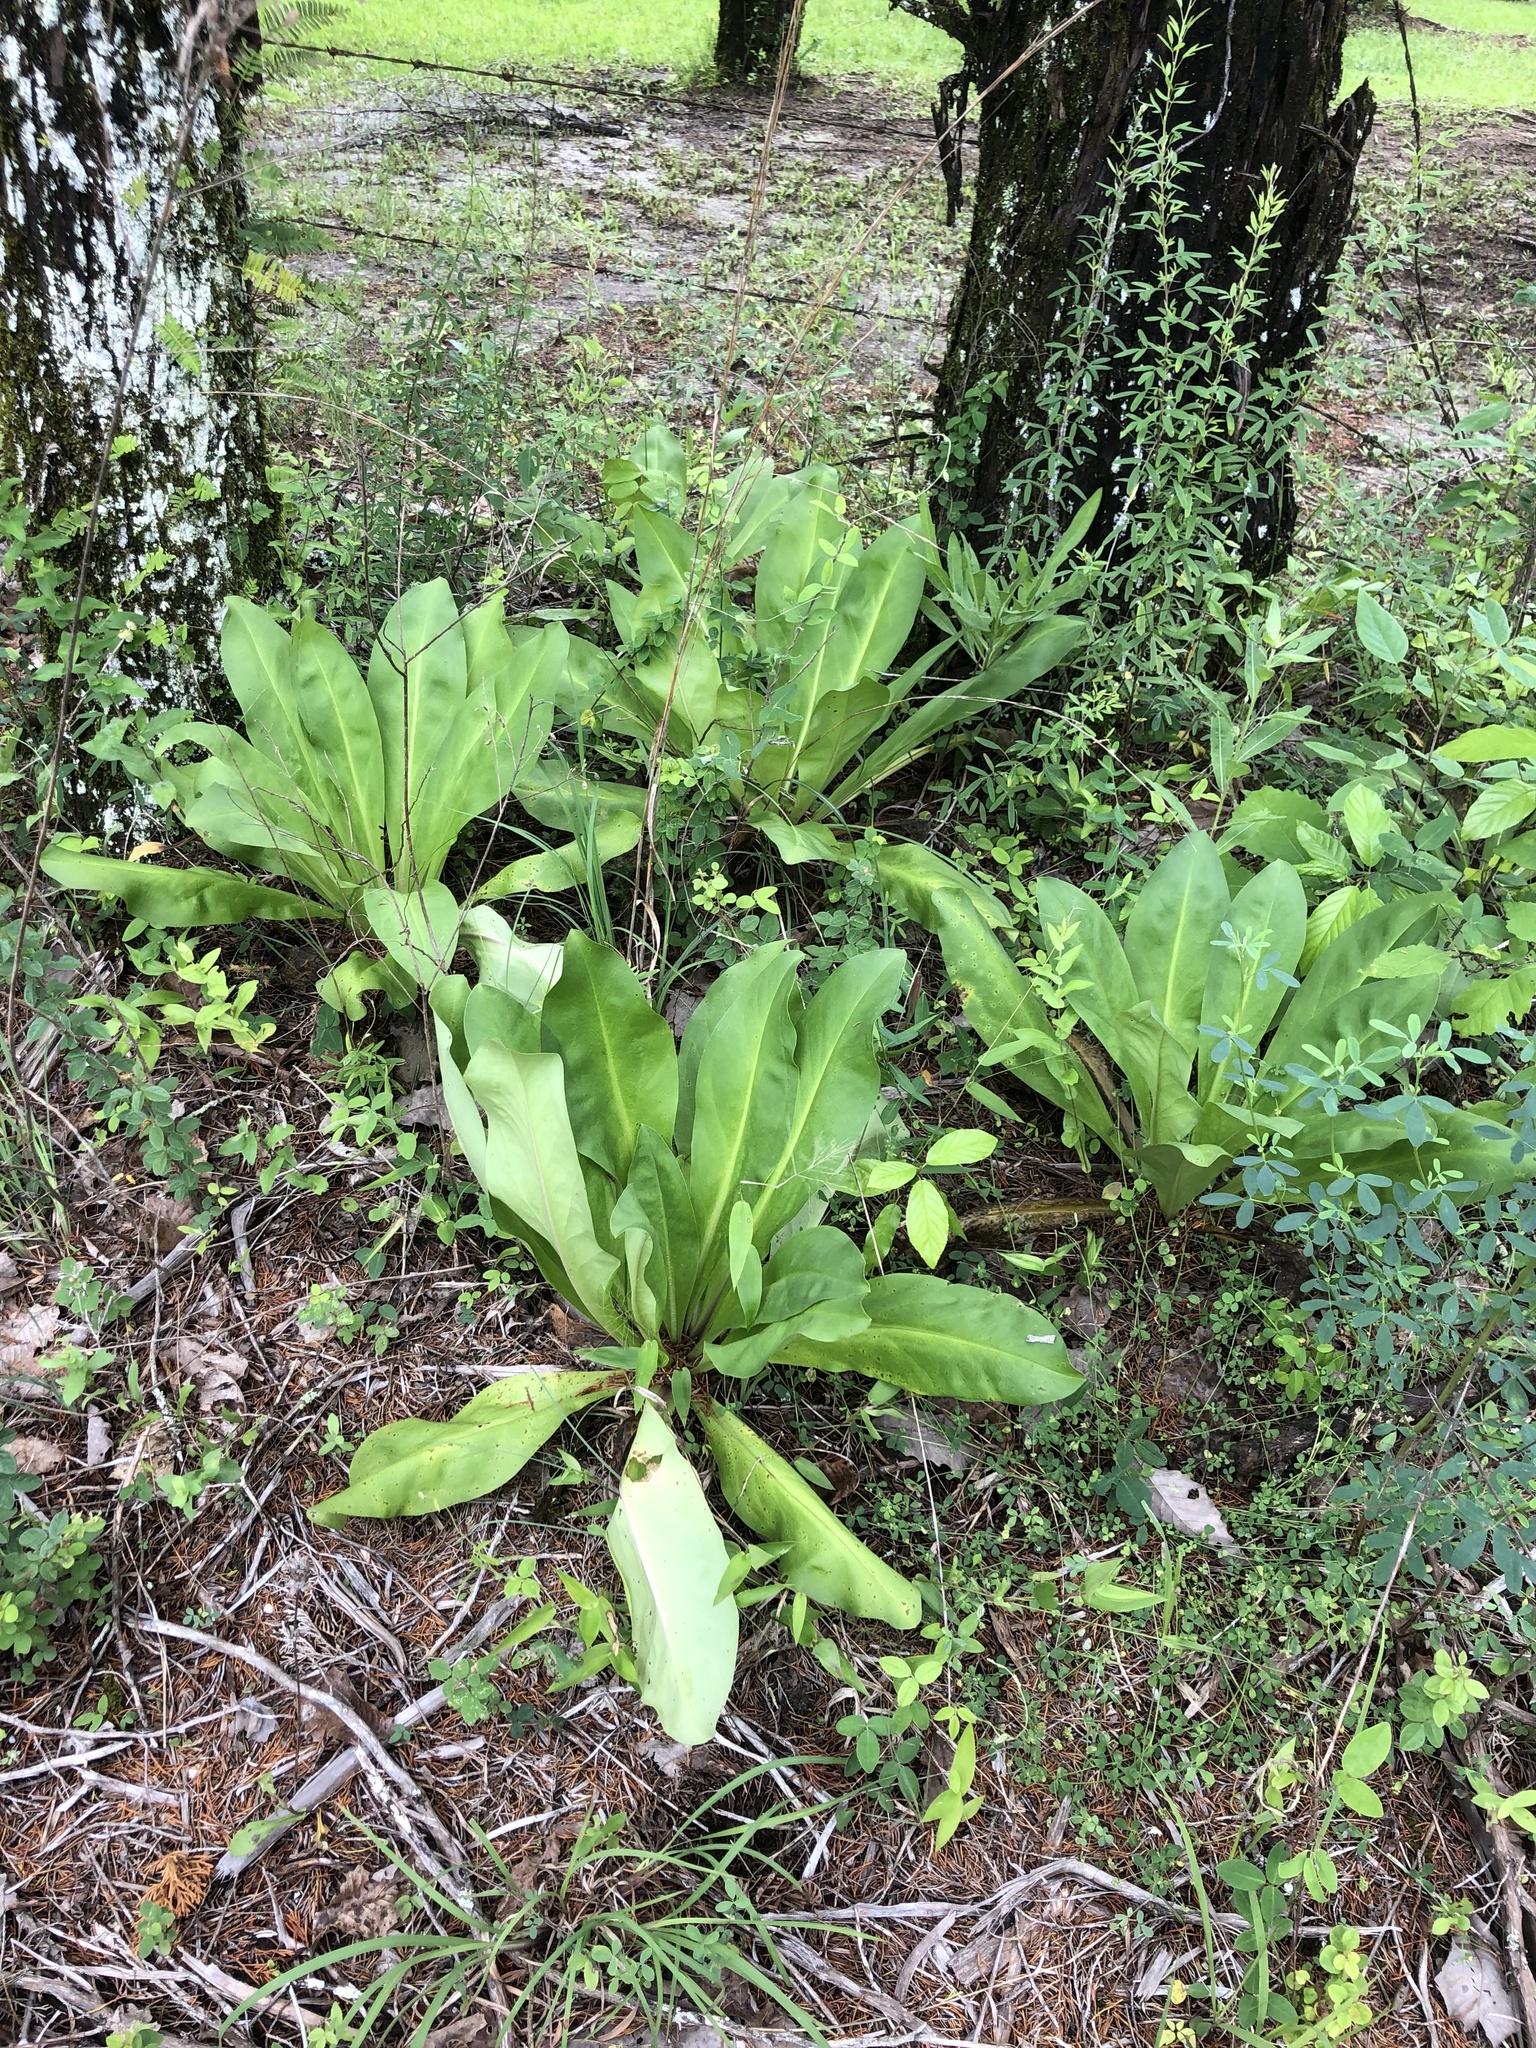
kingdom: Plantae
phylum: Tracheophyta
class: Magnoliopsida
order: Gentianales
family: Gentianaceae
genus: Frasera
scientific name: Frasera caroliniensis
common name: American columbo
